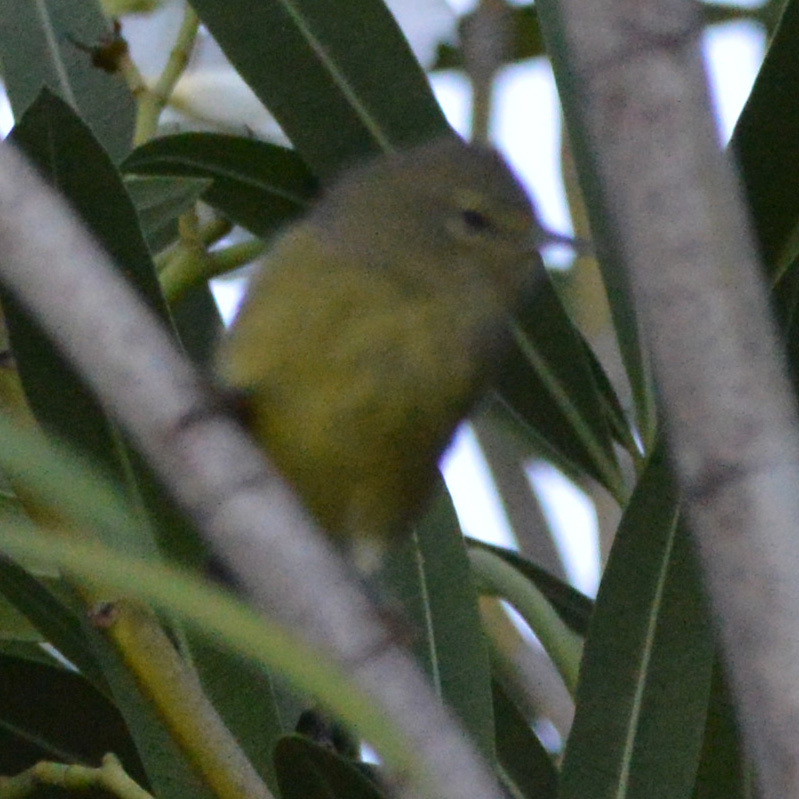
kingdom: Animalia
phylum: Chordata
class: Aves
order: Passeriformes
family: Parulidae
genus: Leiothlypis
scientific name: Leiothlypis celata
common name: Orange-crowned warbler
